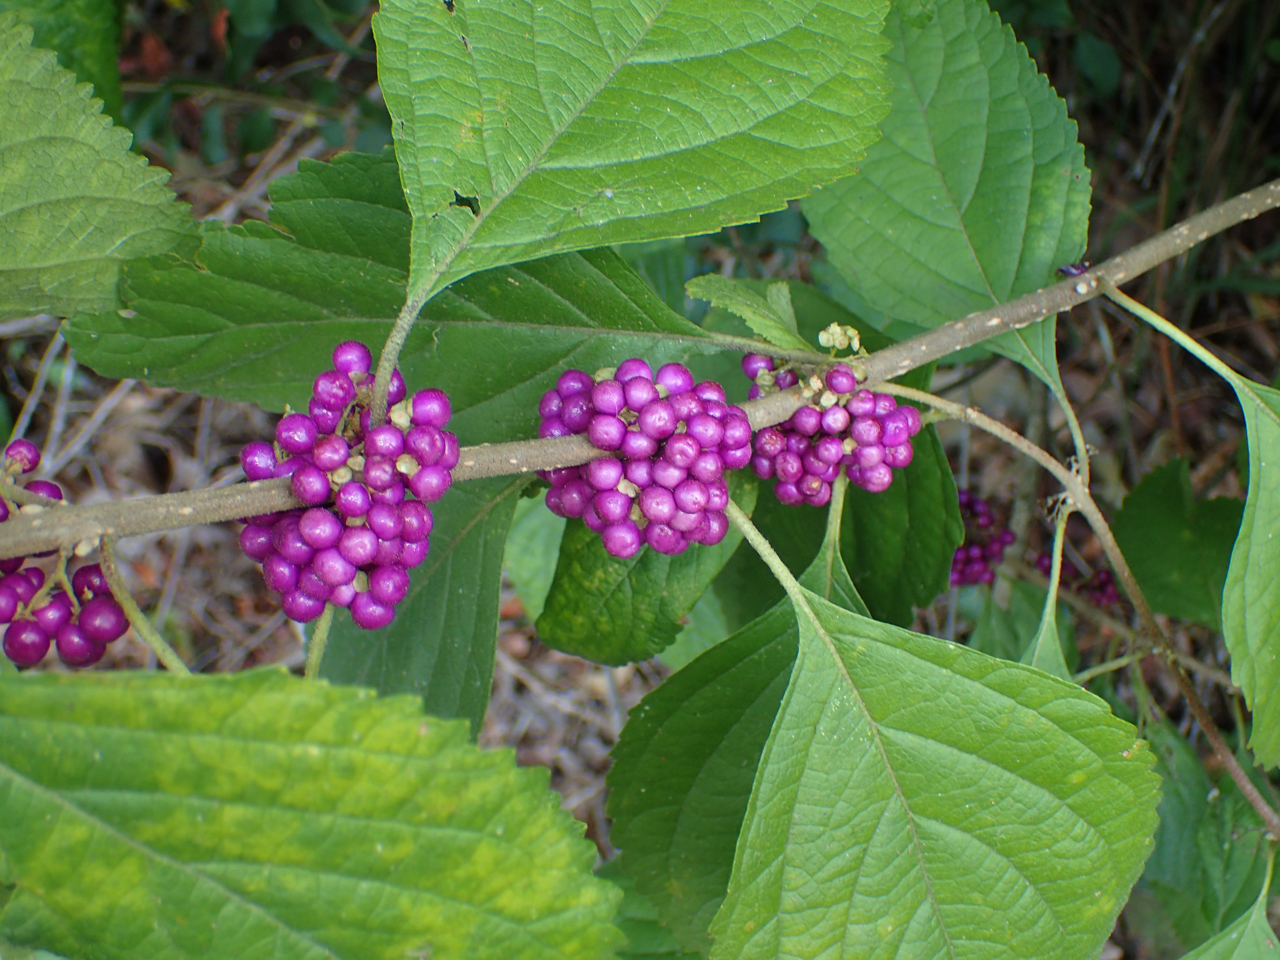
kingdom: Plantae
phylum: Tracheophyta
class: Magnoliopsida
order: Lamiales
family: Lamiaceae
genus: Callicarpa
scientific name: Callicarpa americana
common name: American beautyberry
